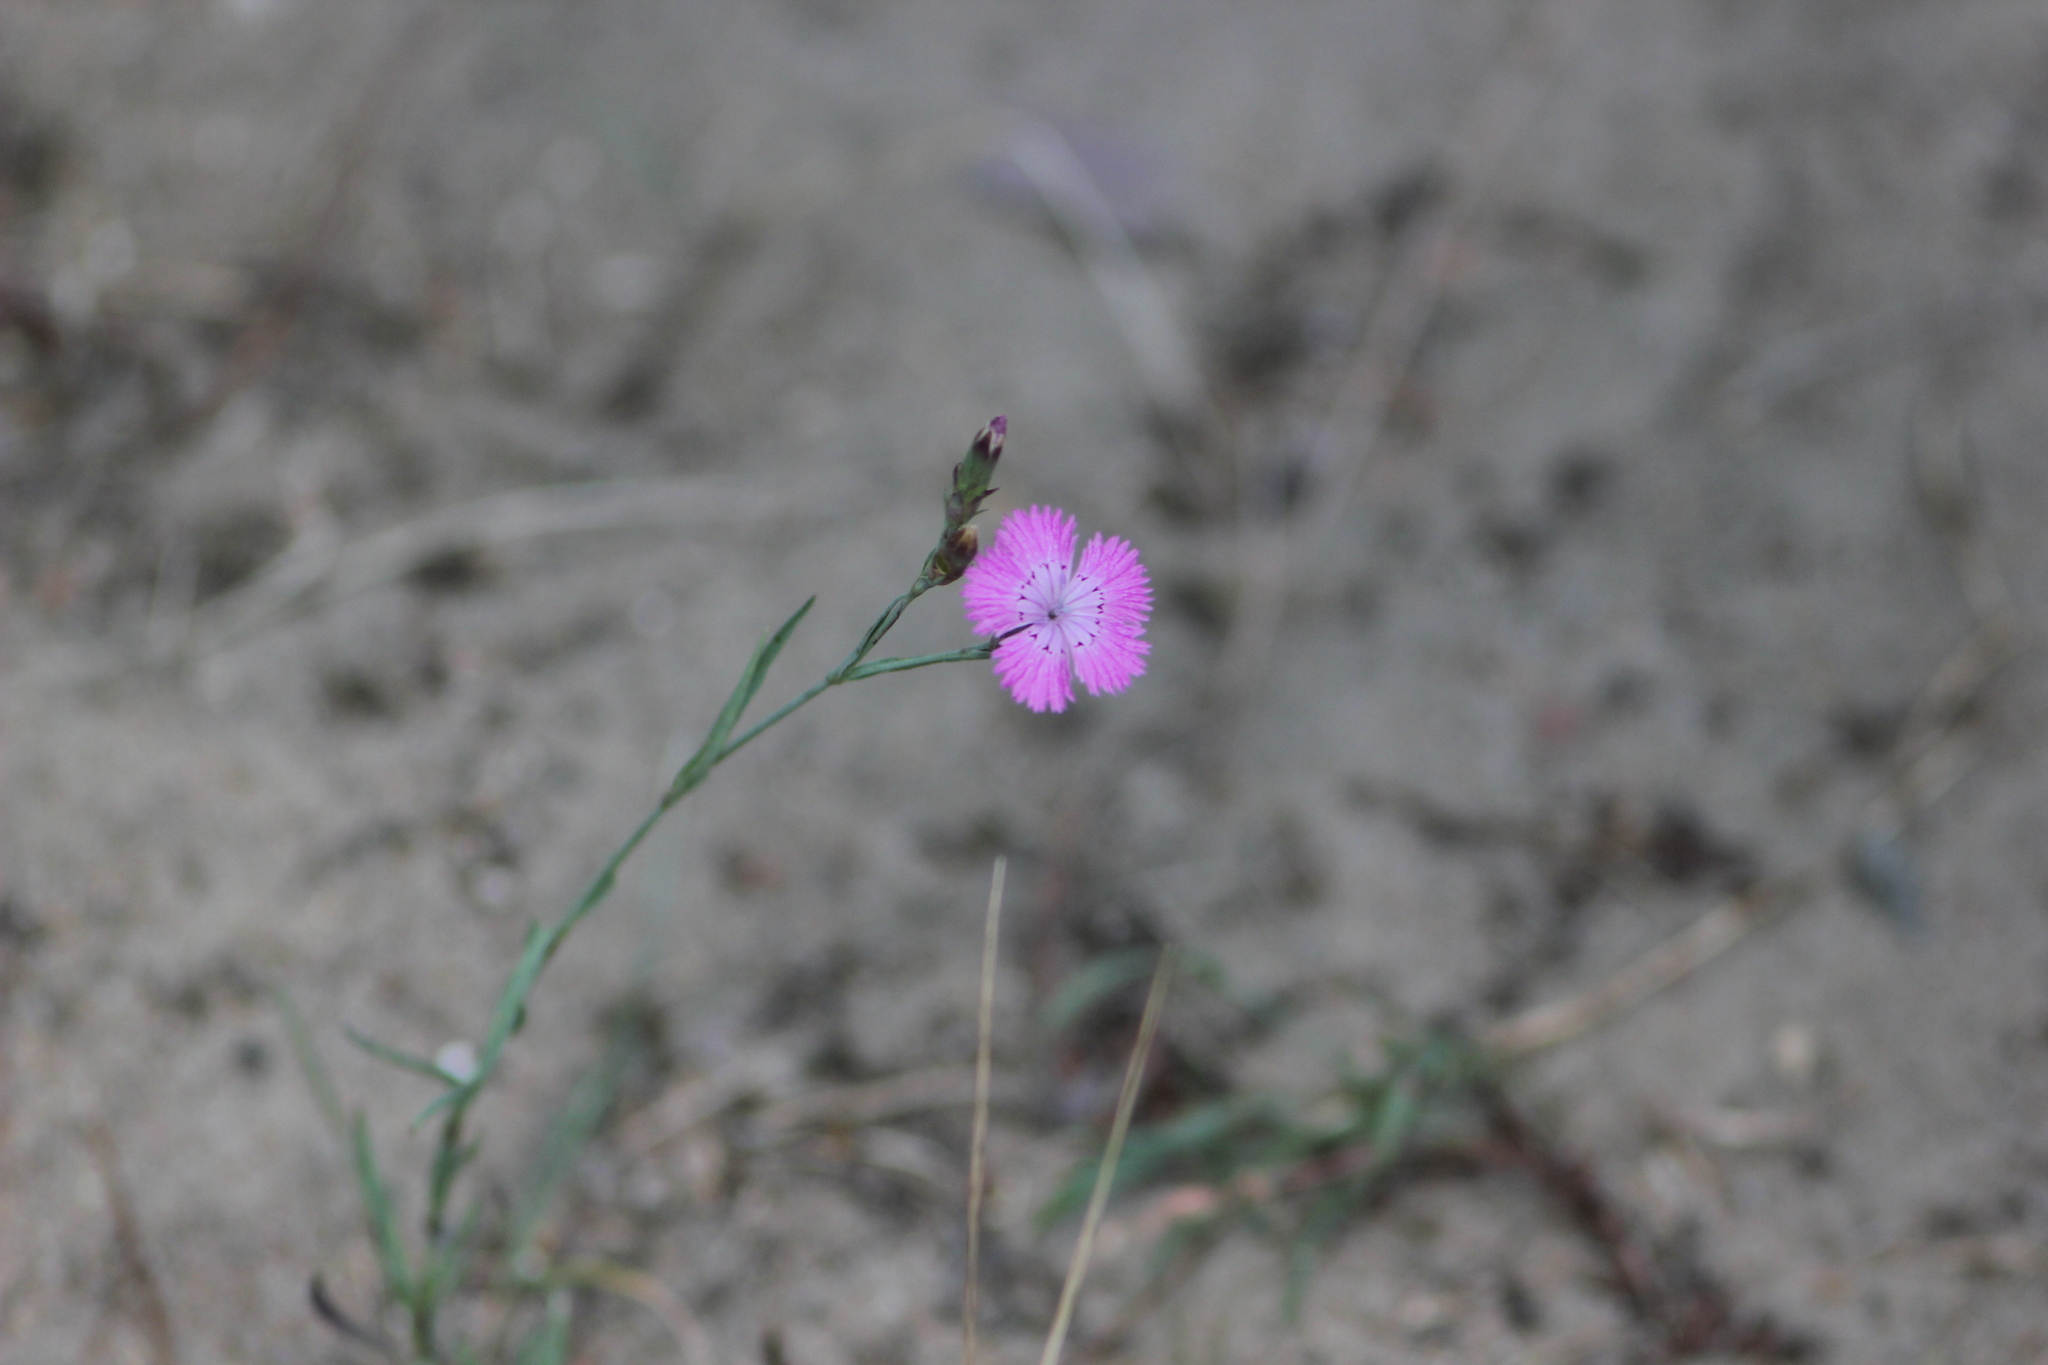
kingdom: Plantae
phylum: Tracheophyta
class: Magnoliopsida
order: Caryophyllales
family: Caryophyllaceae
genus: Dianthus
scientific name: Dianthus chinensis
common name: Rainbow pink
